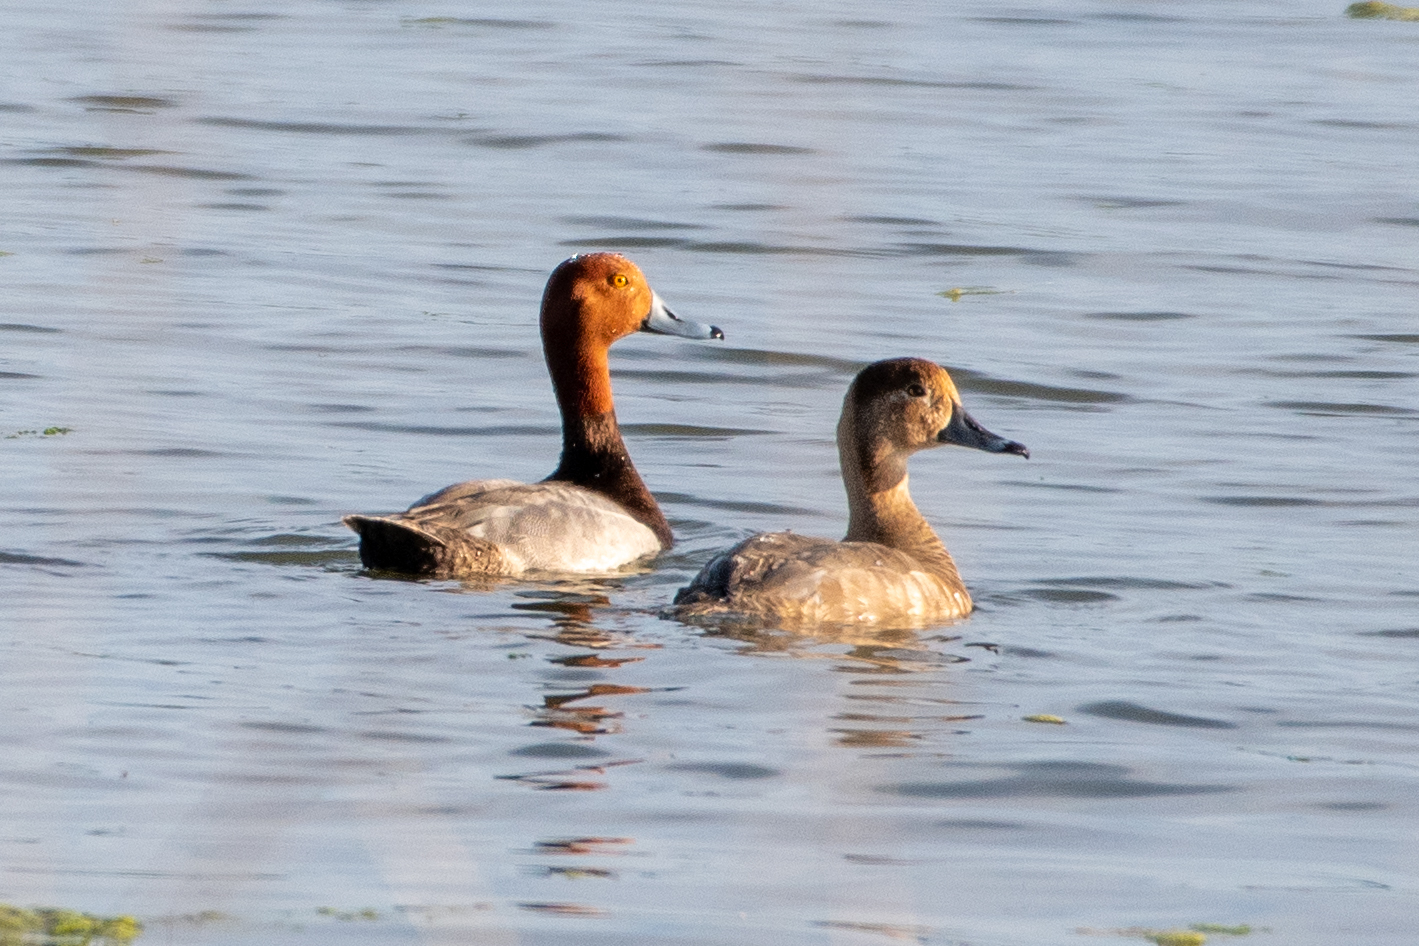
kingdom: Animalia
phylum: Chordata
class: Aves
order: Anseriformes
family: Anatidae
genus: Aythya
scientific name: Aythya americana
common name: Redhead
